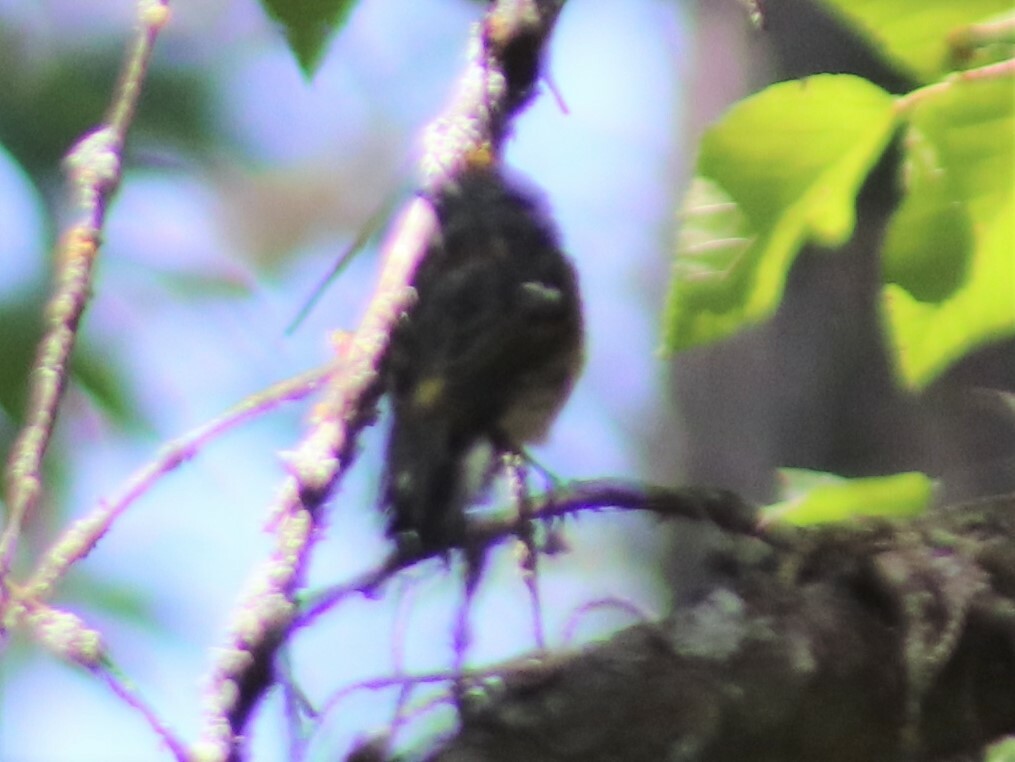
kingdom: Animalia
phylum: Chordata
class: Aves
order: Passeriformes
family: Parulidae
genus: Setophaga
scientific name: Setophaga coronata
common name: Myrtle warbler
